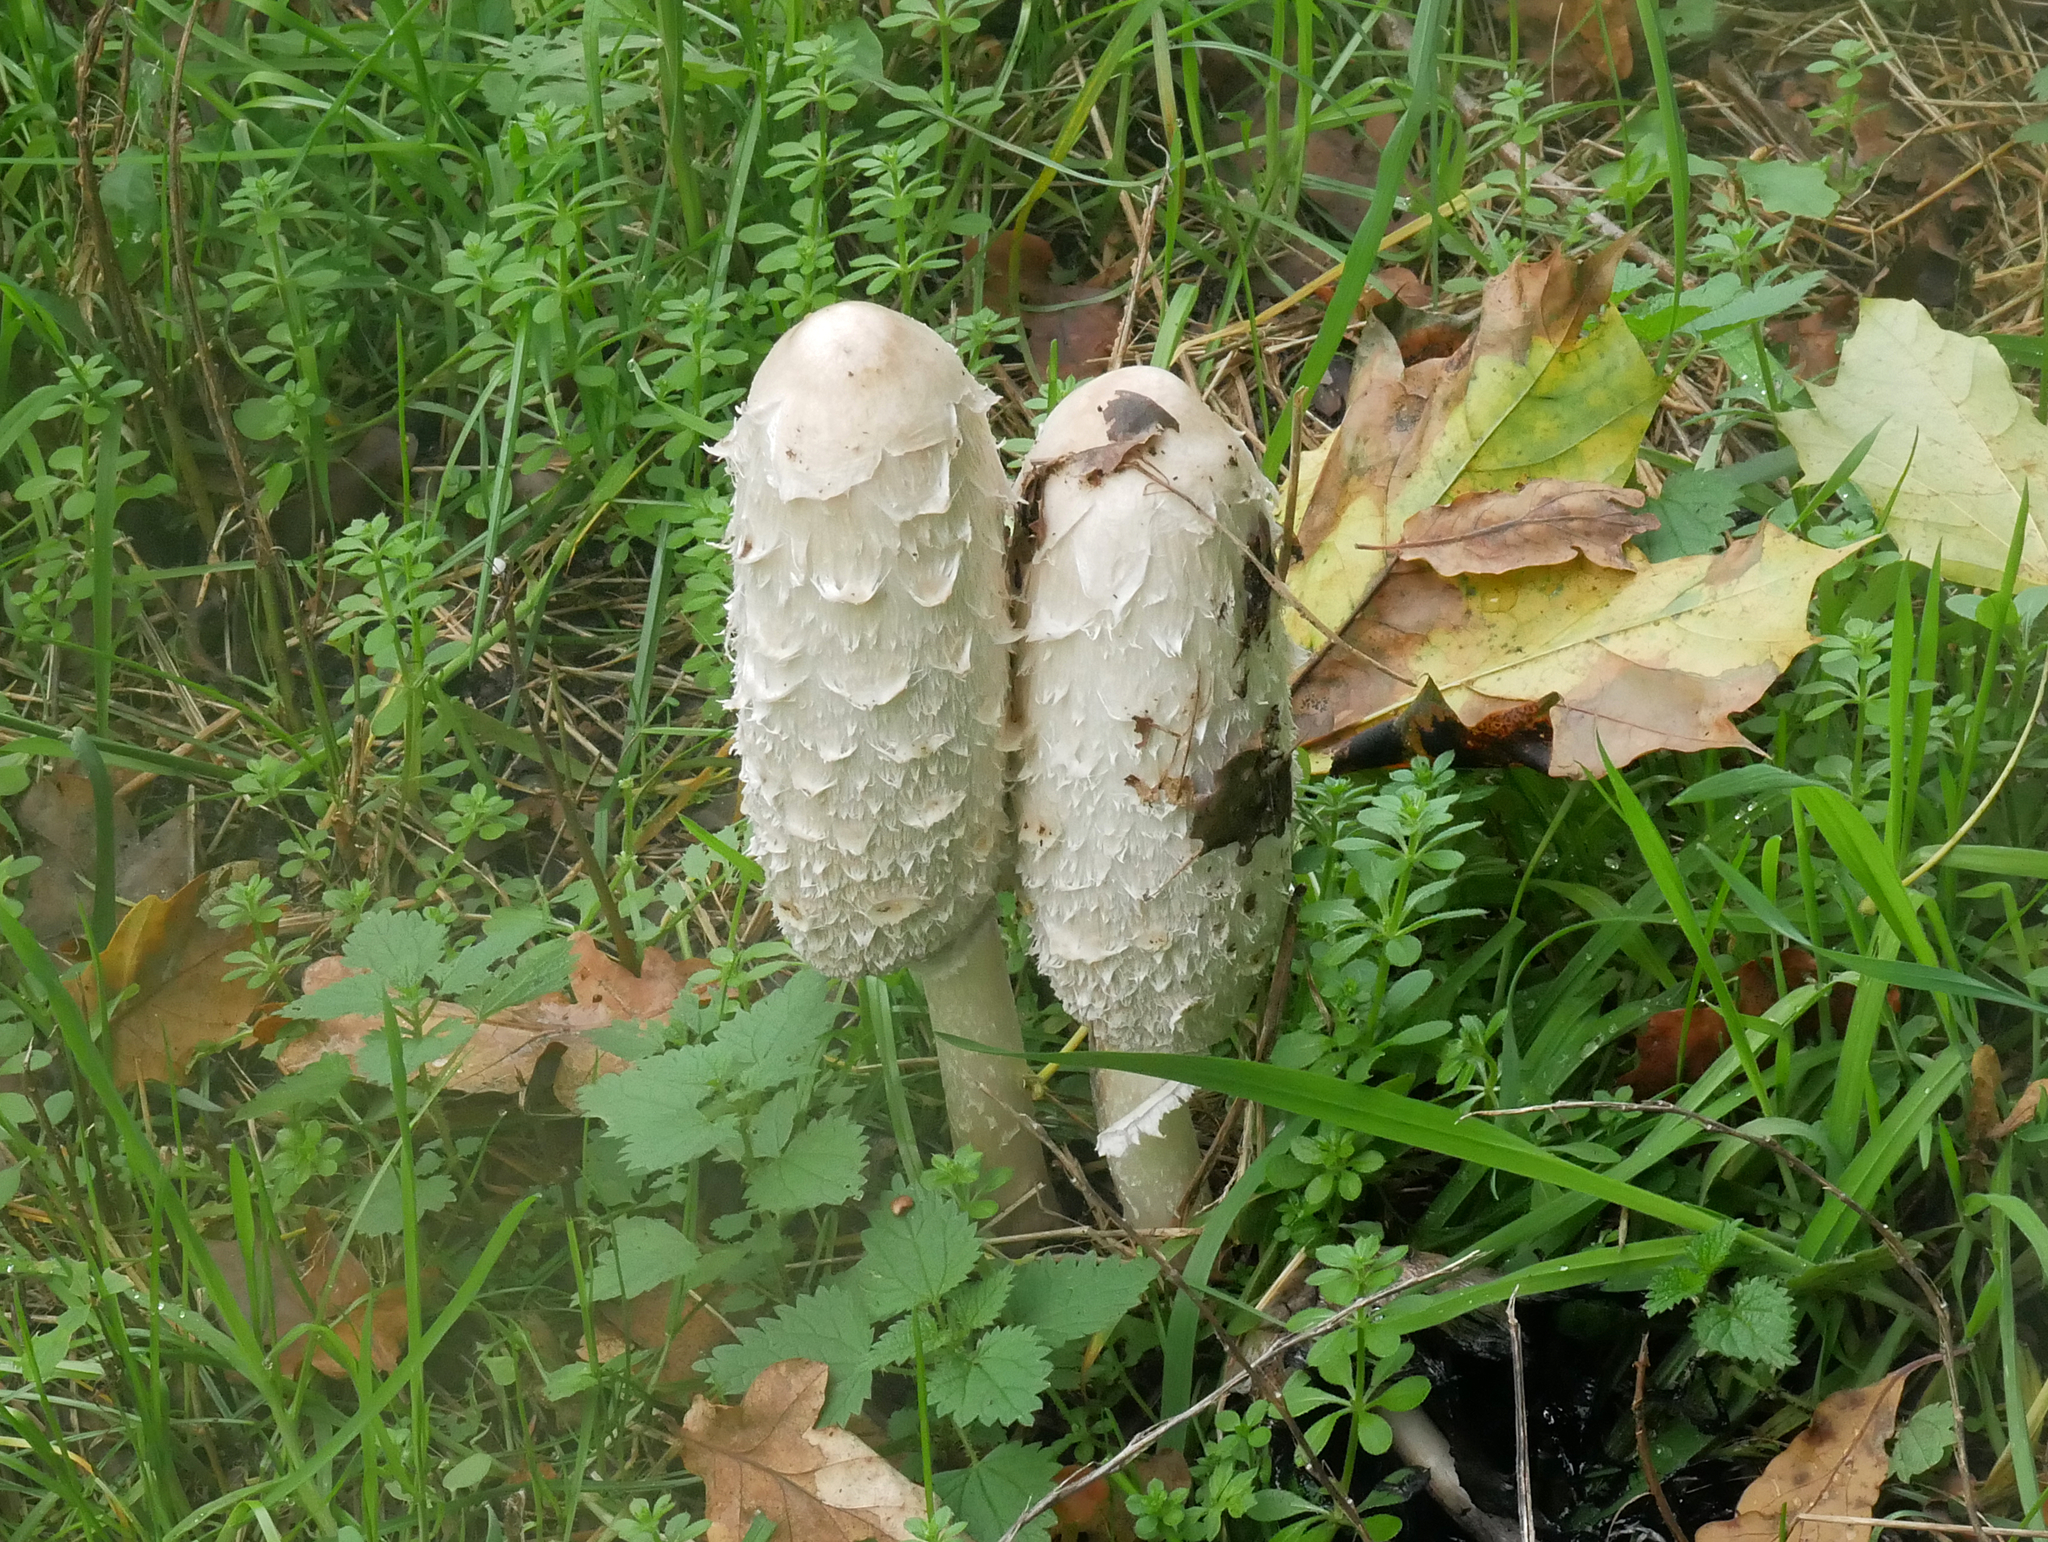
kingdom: Fungi
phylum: Basidiomycota
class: Agaricomycetes
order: Agaricales
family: Agaricaceae
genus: Coprinus
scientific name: Coprinus comatus
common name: Lawyer's wig
